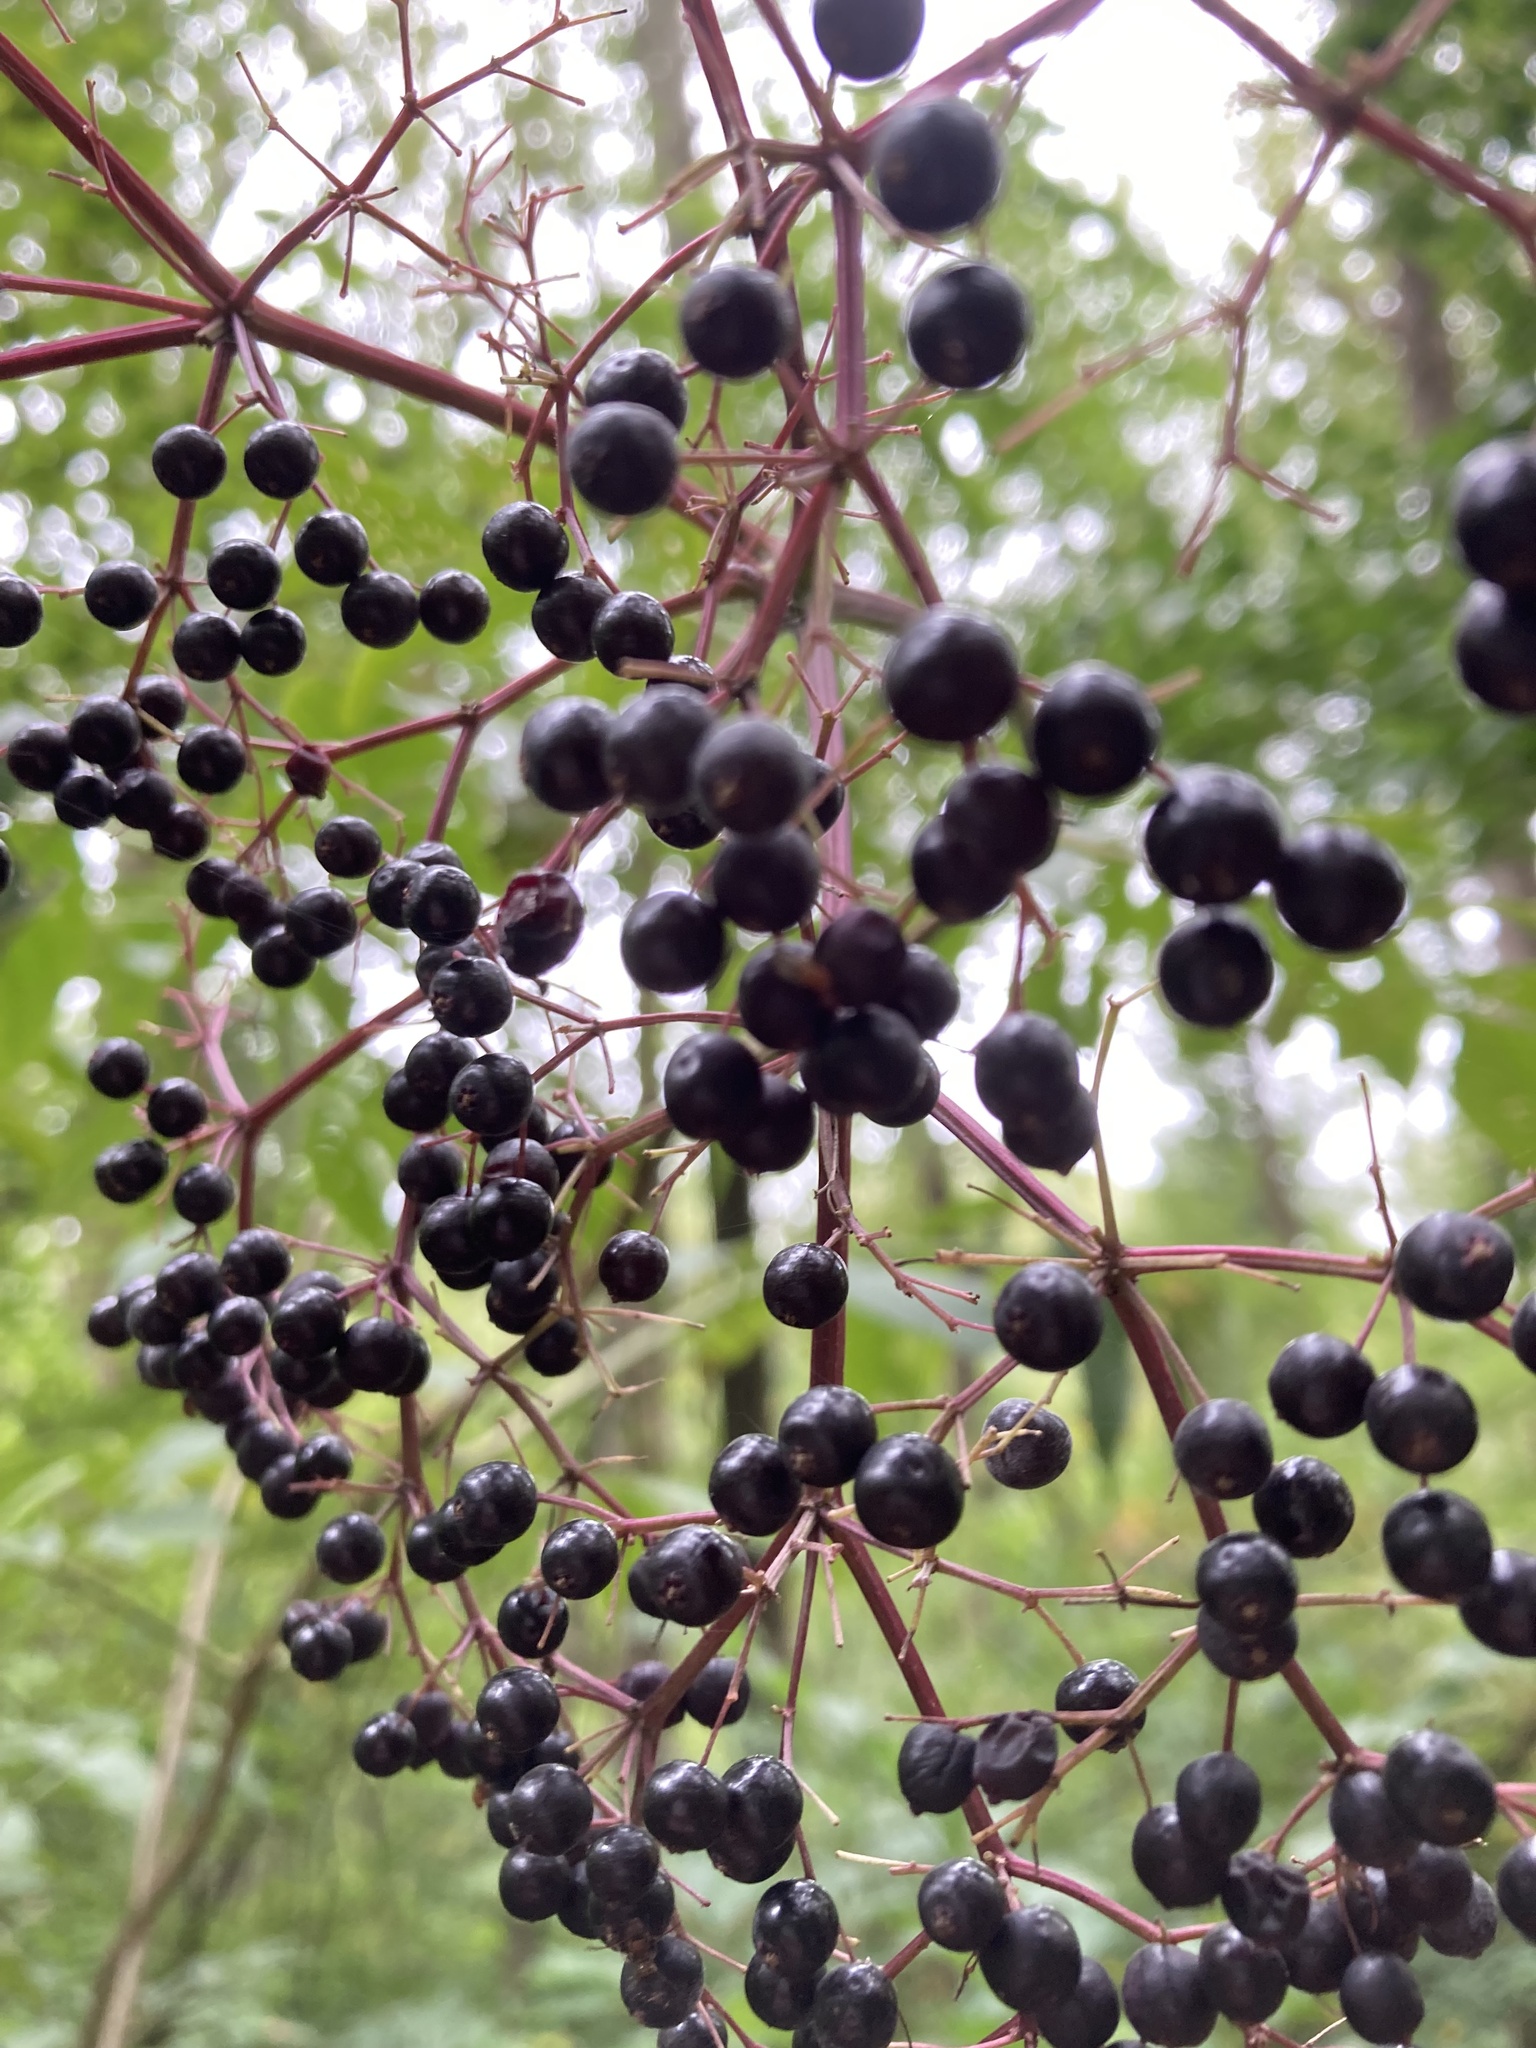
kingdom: Plantae
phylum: Tracheophyta
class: Magnoliopsida
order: Dipsacales
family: Viburnaceae
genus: Sambucus
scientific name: Sambucus canadensis
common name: American elder
